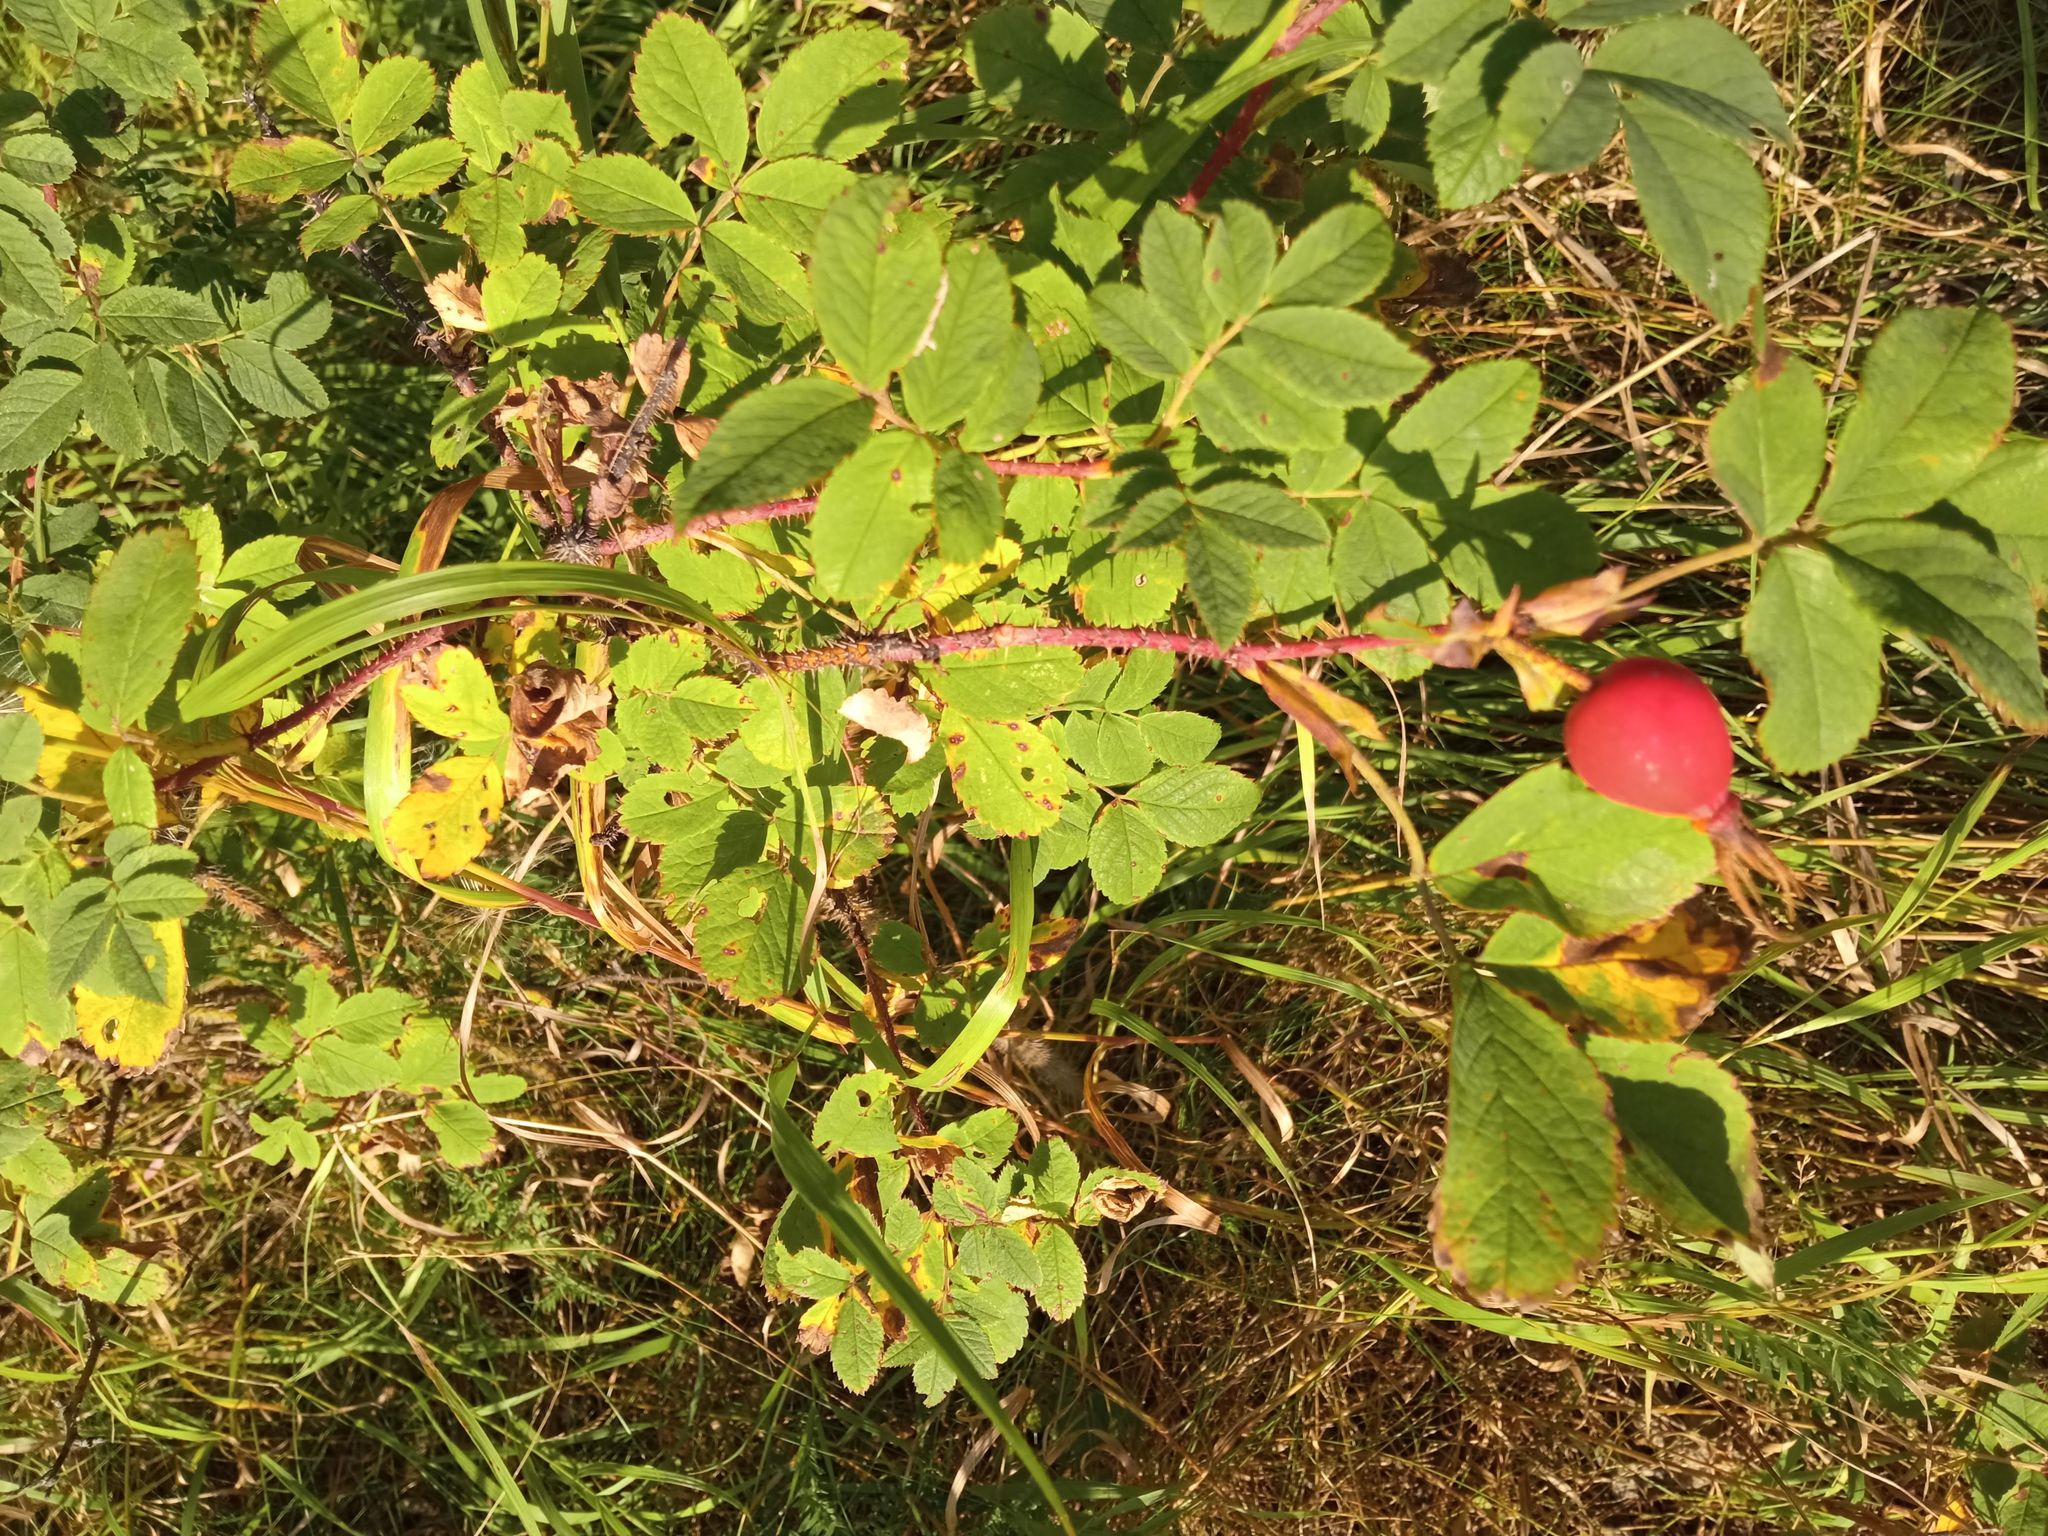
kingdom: Plantae
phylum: Tracheophyta
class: Magnoliopsida
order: Rosales
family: Rosaceae
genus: Rosa
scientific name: Rosa acicularis
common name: Prickly rose
